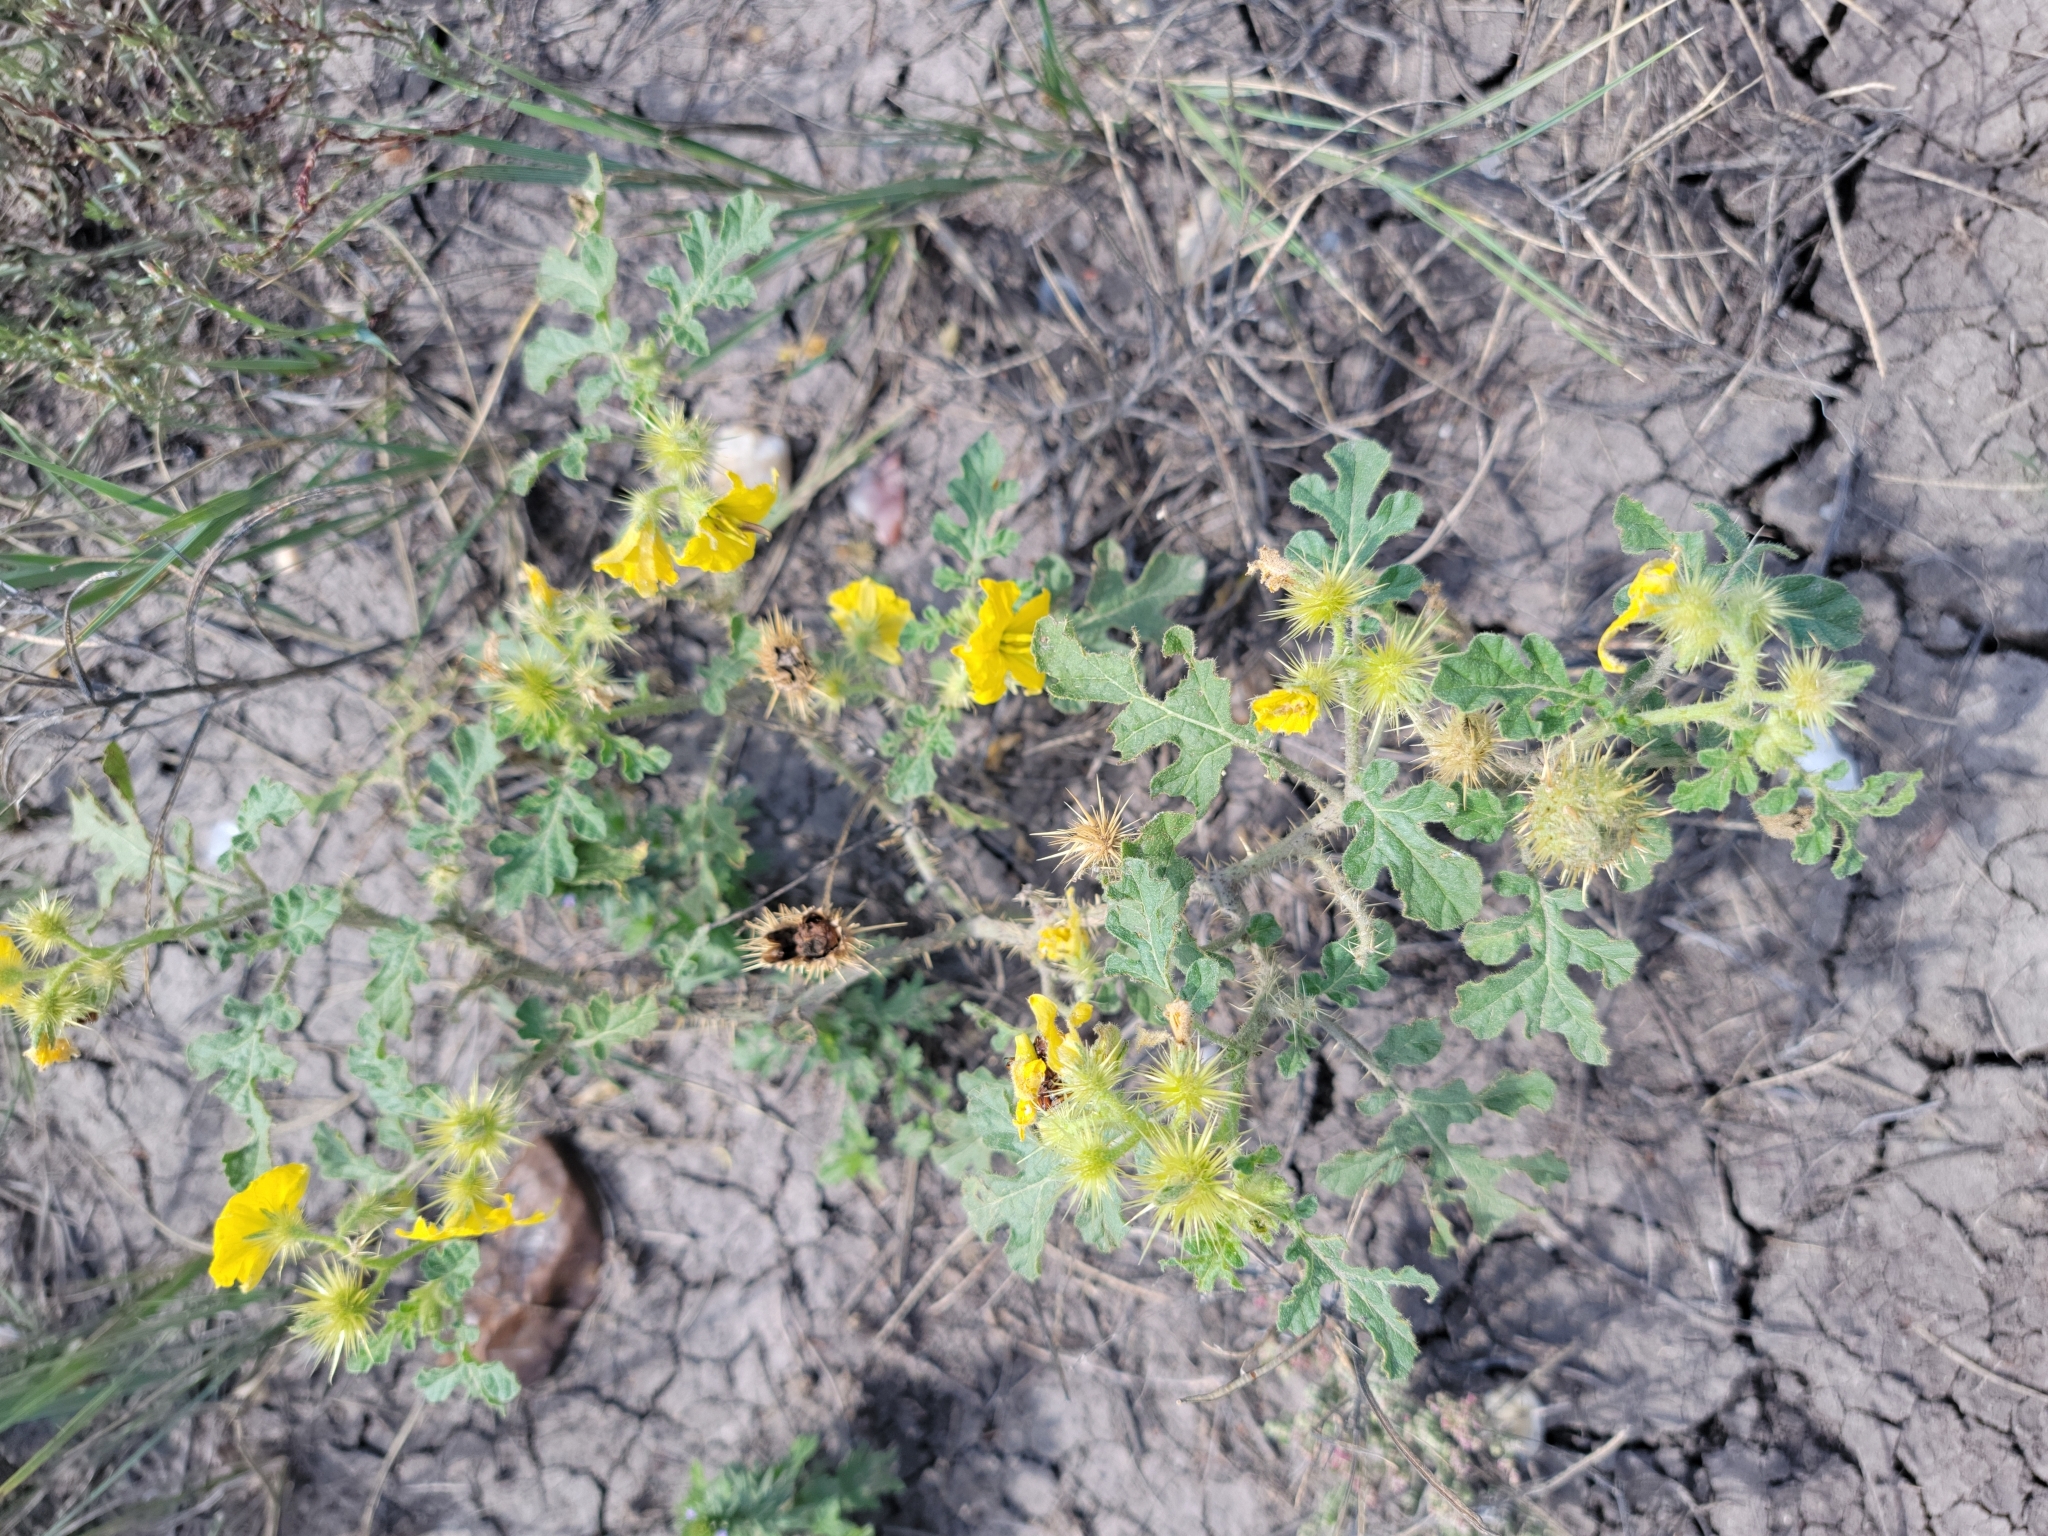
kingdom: Plantae
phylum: Tracheophyta
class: Magnoliopsida
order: Solanales
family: Solanaceae
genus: Solanum
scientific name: Solanum angustifolium
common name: Buffalobur nightshade
